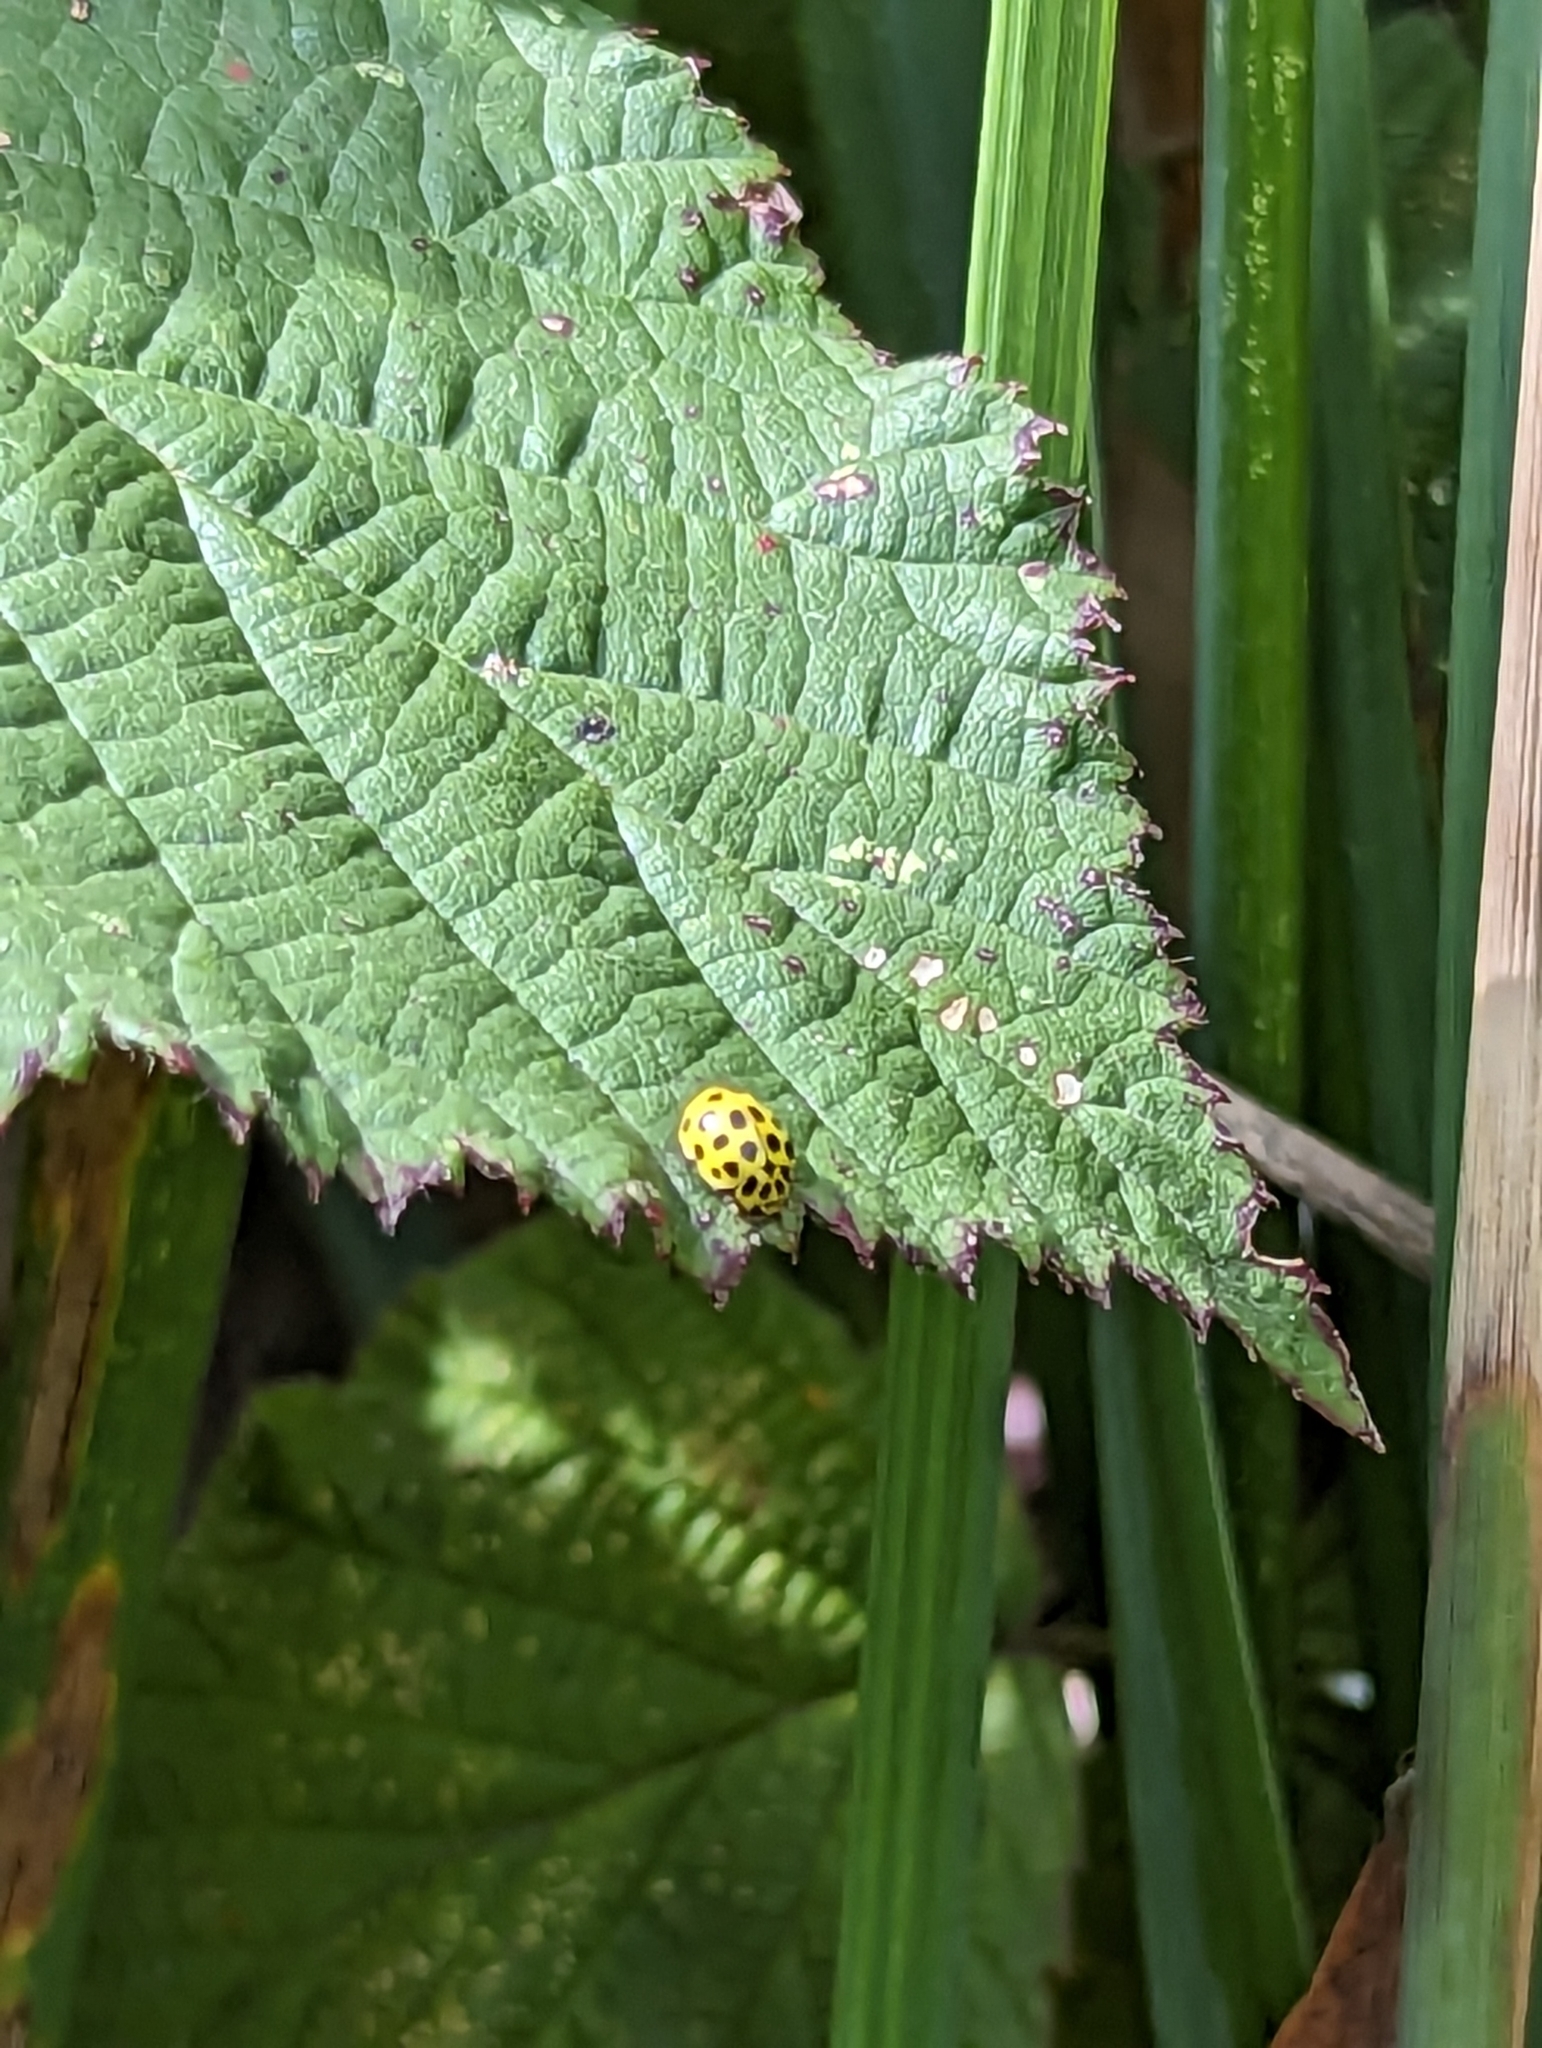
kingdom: Animalia
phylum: Arthropoda
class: Insecta
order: Coleoptera
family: Coccinellidae
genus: Psyllobora
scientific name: Psyllobora vigintiduopunctata
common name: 22-spot ladybird
